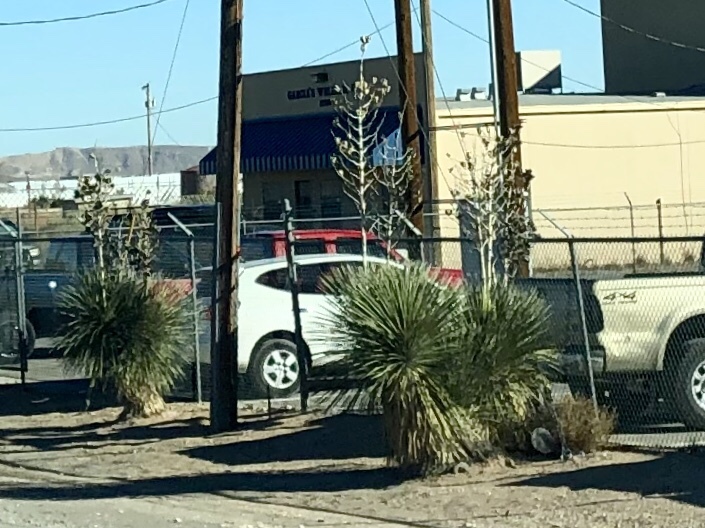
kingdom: Plantae
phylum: Tracheophyta
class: Liliopsida
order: Asparagales
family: Asparagaceae
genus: Yucca
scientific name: Yucca elata
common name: Palmella
